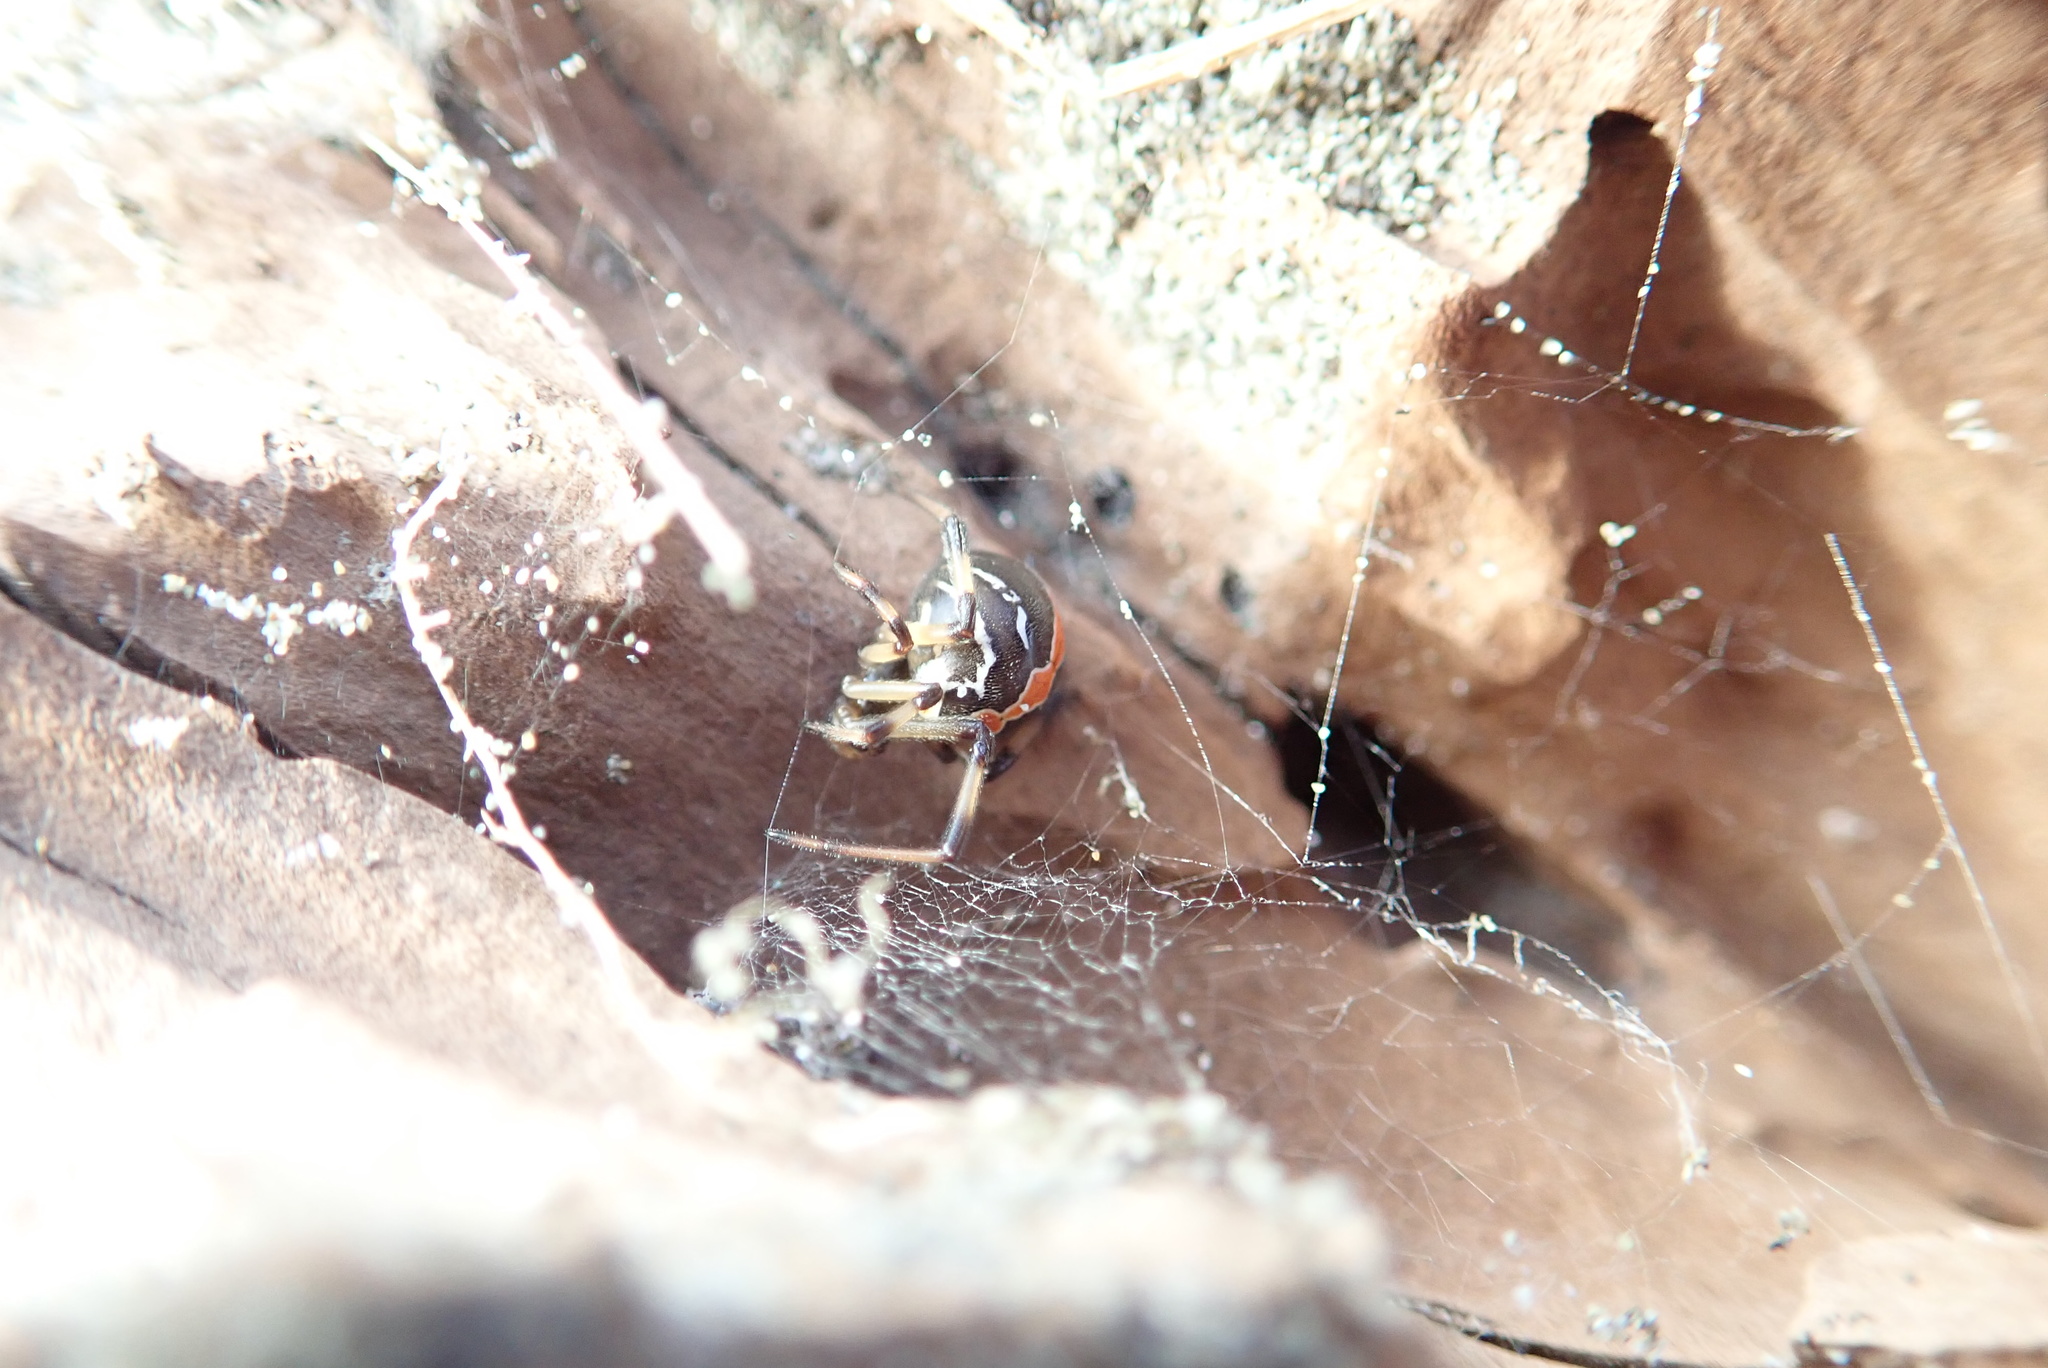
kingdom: Animalia
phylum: Arthropoda
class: Arachnida
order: Araneae
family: Theridiidae
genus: Latrodectus
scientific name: Latrodectus katipo
